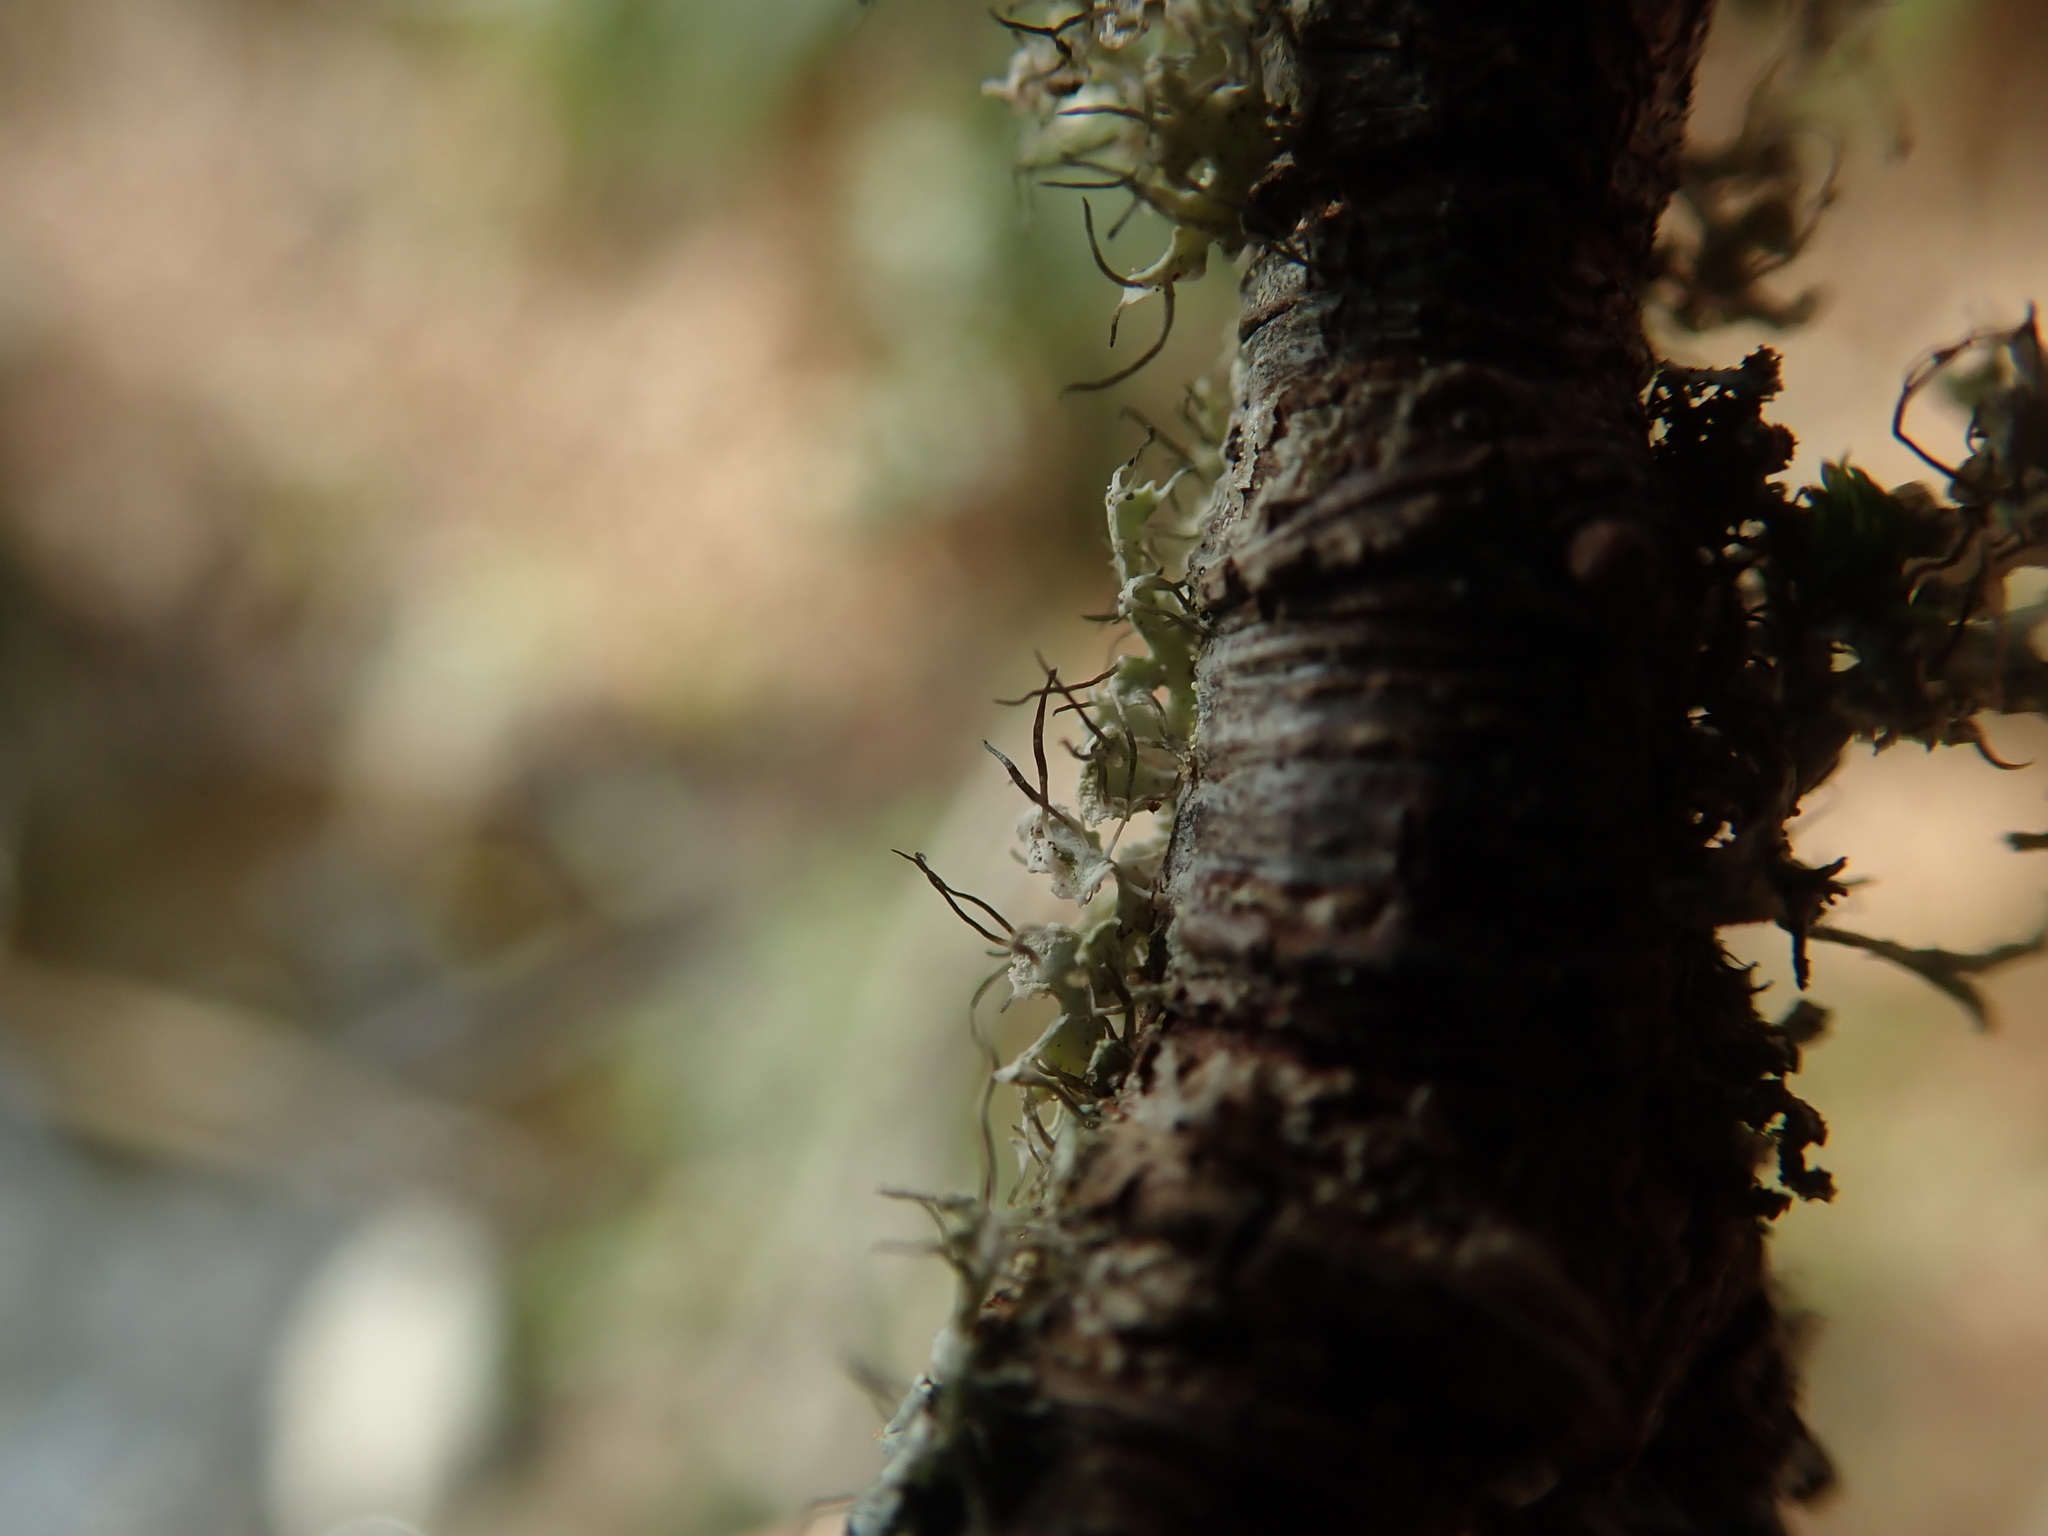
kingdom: Fungi
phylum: Ascomycota
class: Lecanoromycetes
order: Caliciales
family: Physciaceae
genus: Physcia
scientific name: Physcia tenella
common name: Fringed rosette lichen
